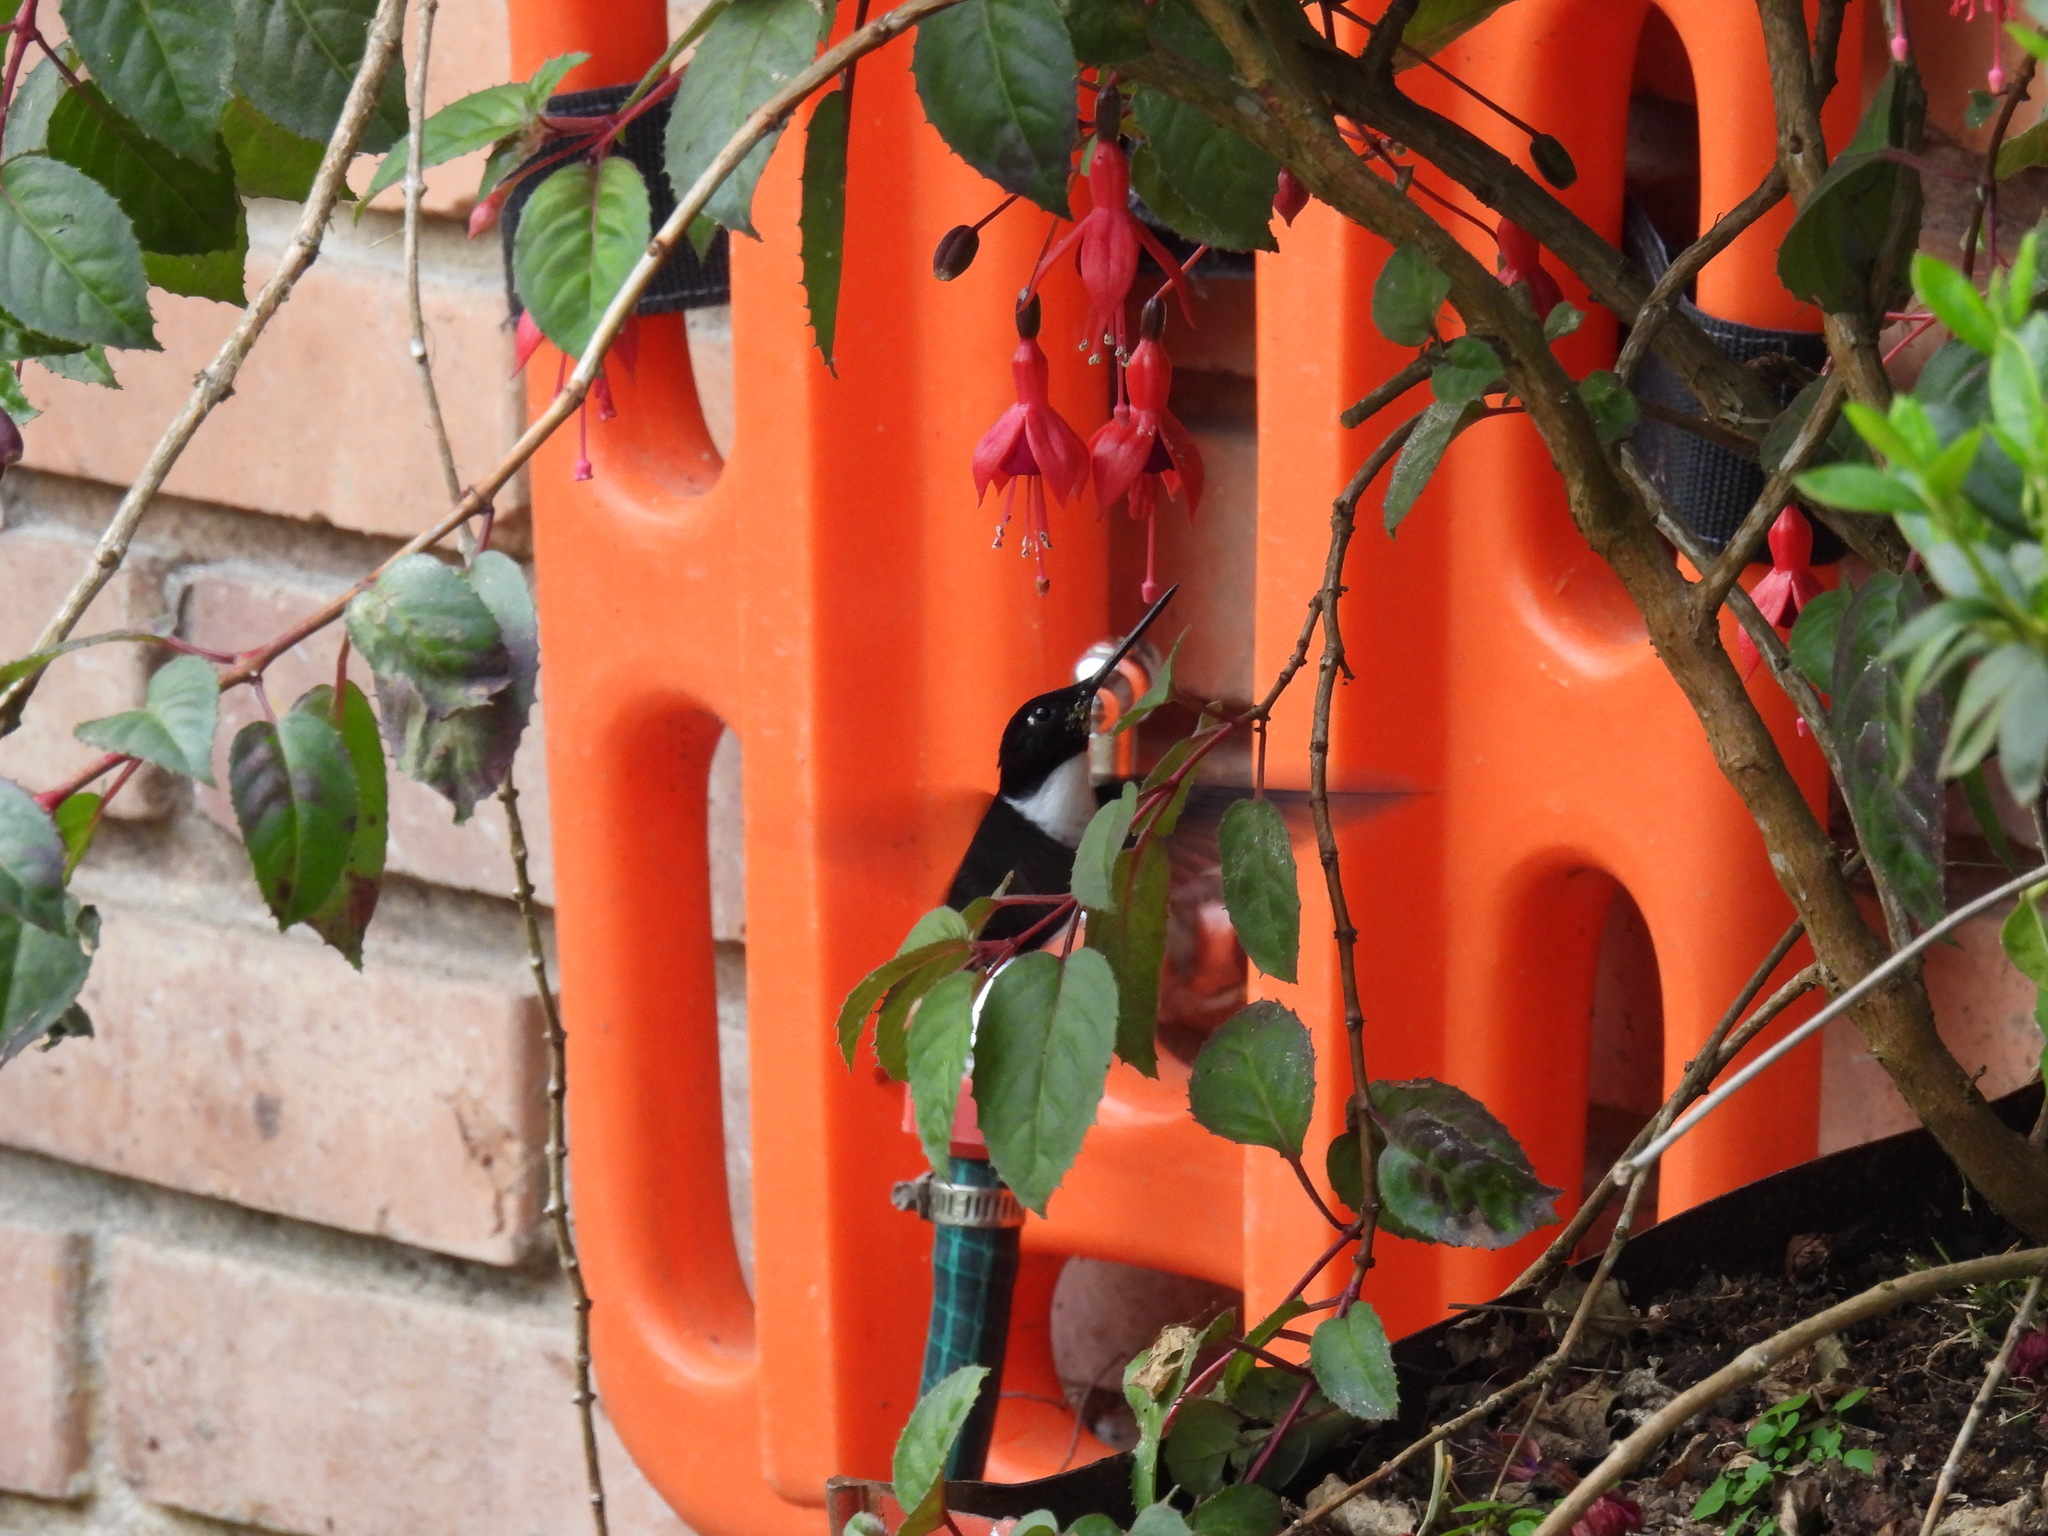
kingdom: Animalia
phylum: Chordata
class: Aves
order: Apodiformes
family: Trochilidae
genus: Coeligena
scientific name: Coeligena torquata
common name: Collared inca
